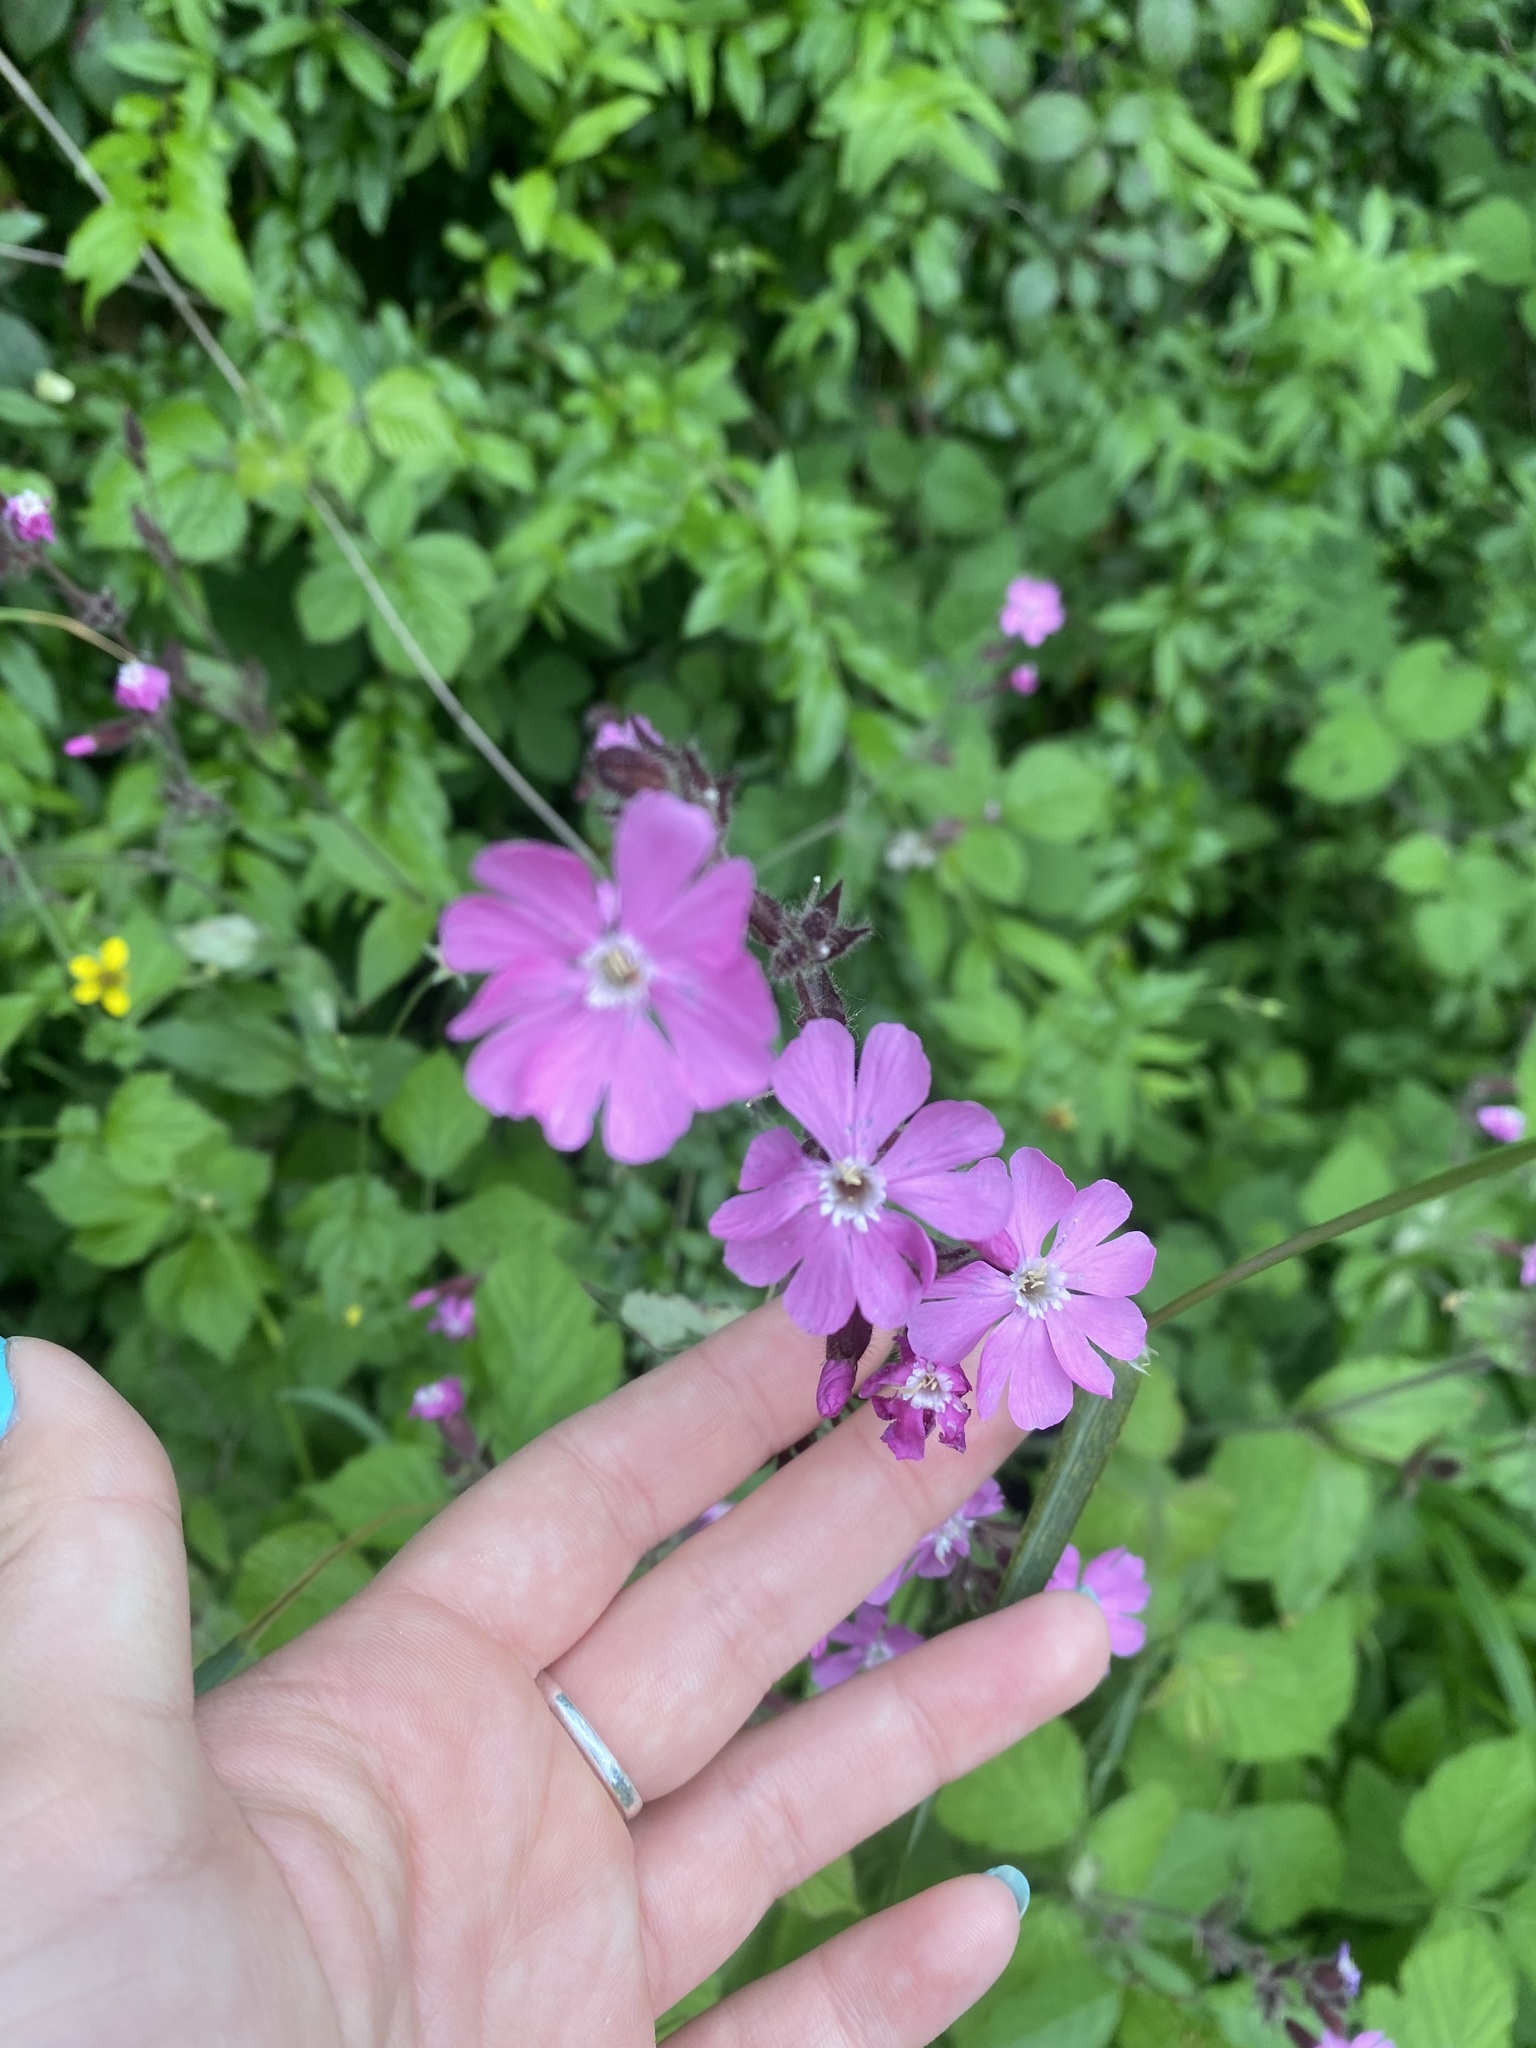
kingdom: Plantae
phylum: Tracheophyta
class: Magnoliopsida
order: Caryophyllales
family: Caryophyllaceae
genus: Silene
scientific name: Silene dioica
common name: Red campion
